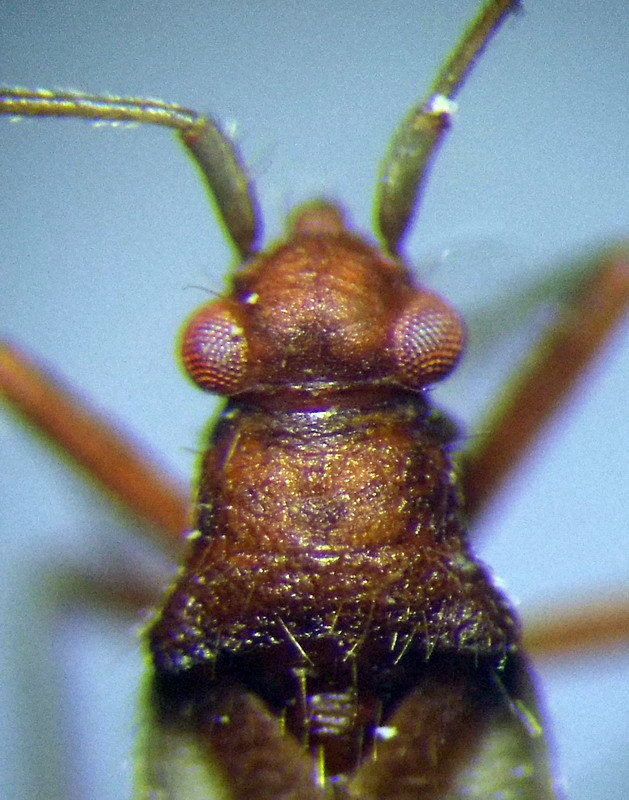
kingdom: Animalia
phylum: Arthropoda
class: Insecta
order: Hemiptera
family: Miridae
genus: Hallodapus
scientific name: Hallodapus montandoni
